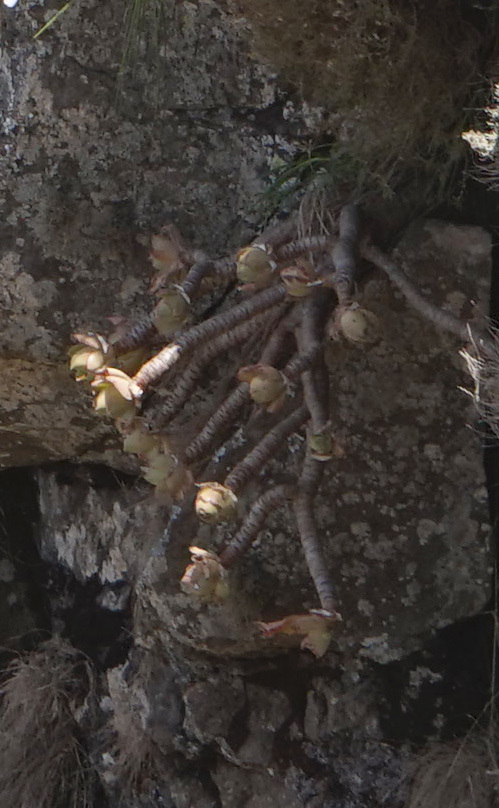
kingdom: Plantae
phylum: Tracheophyta
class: Magnoliopsida
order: Saxifragales
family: Crassulaceae
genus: Aeonium
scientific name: Aeonium leucoblepharum
